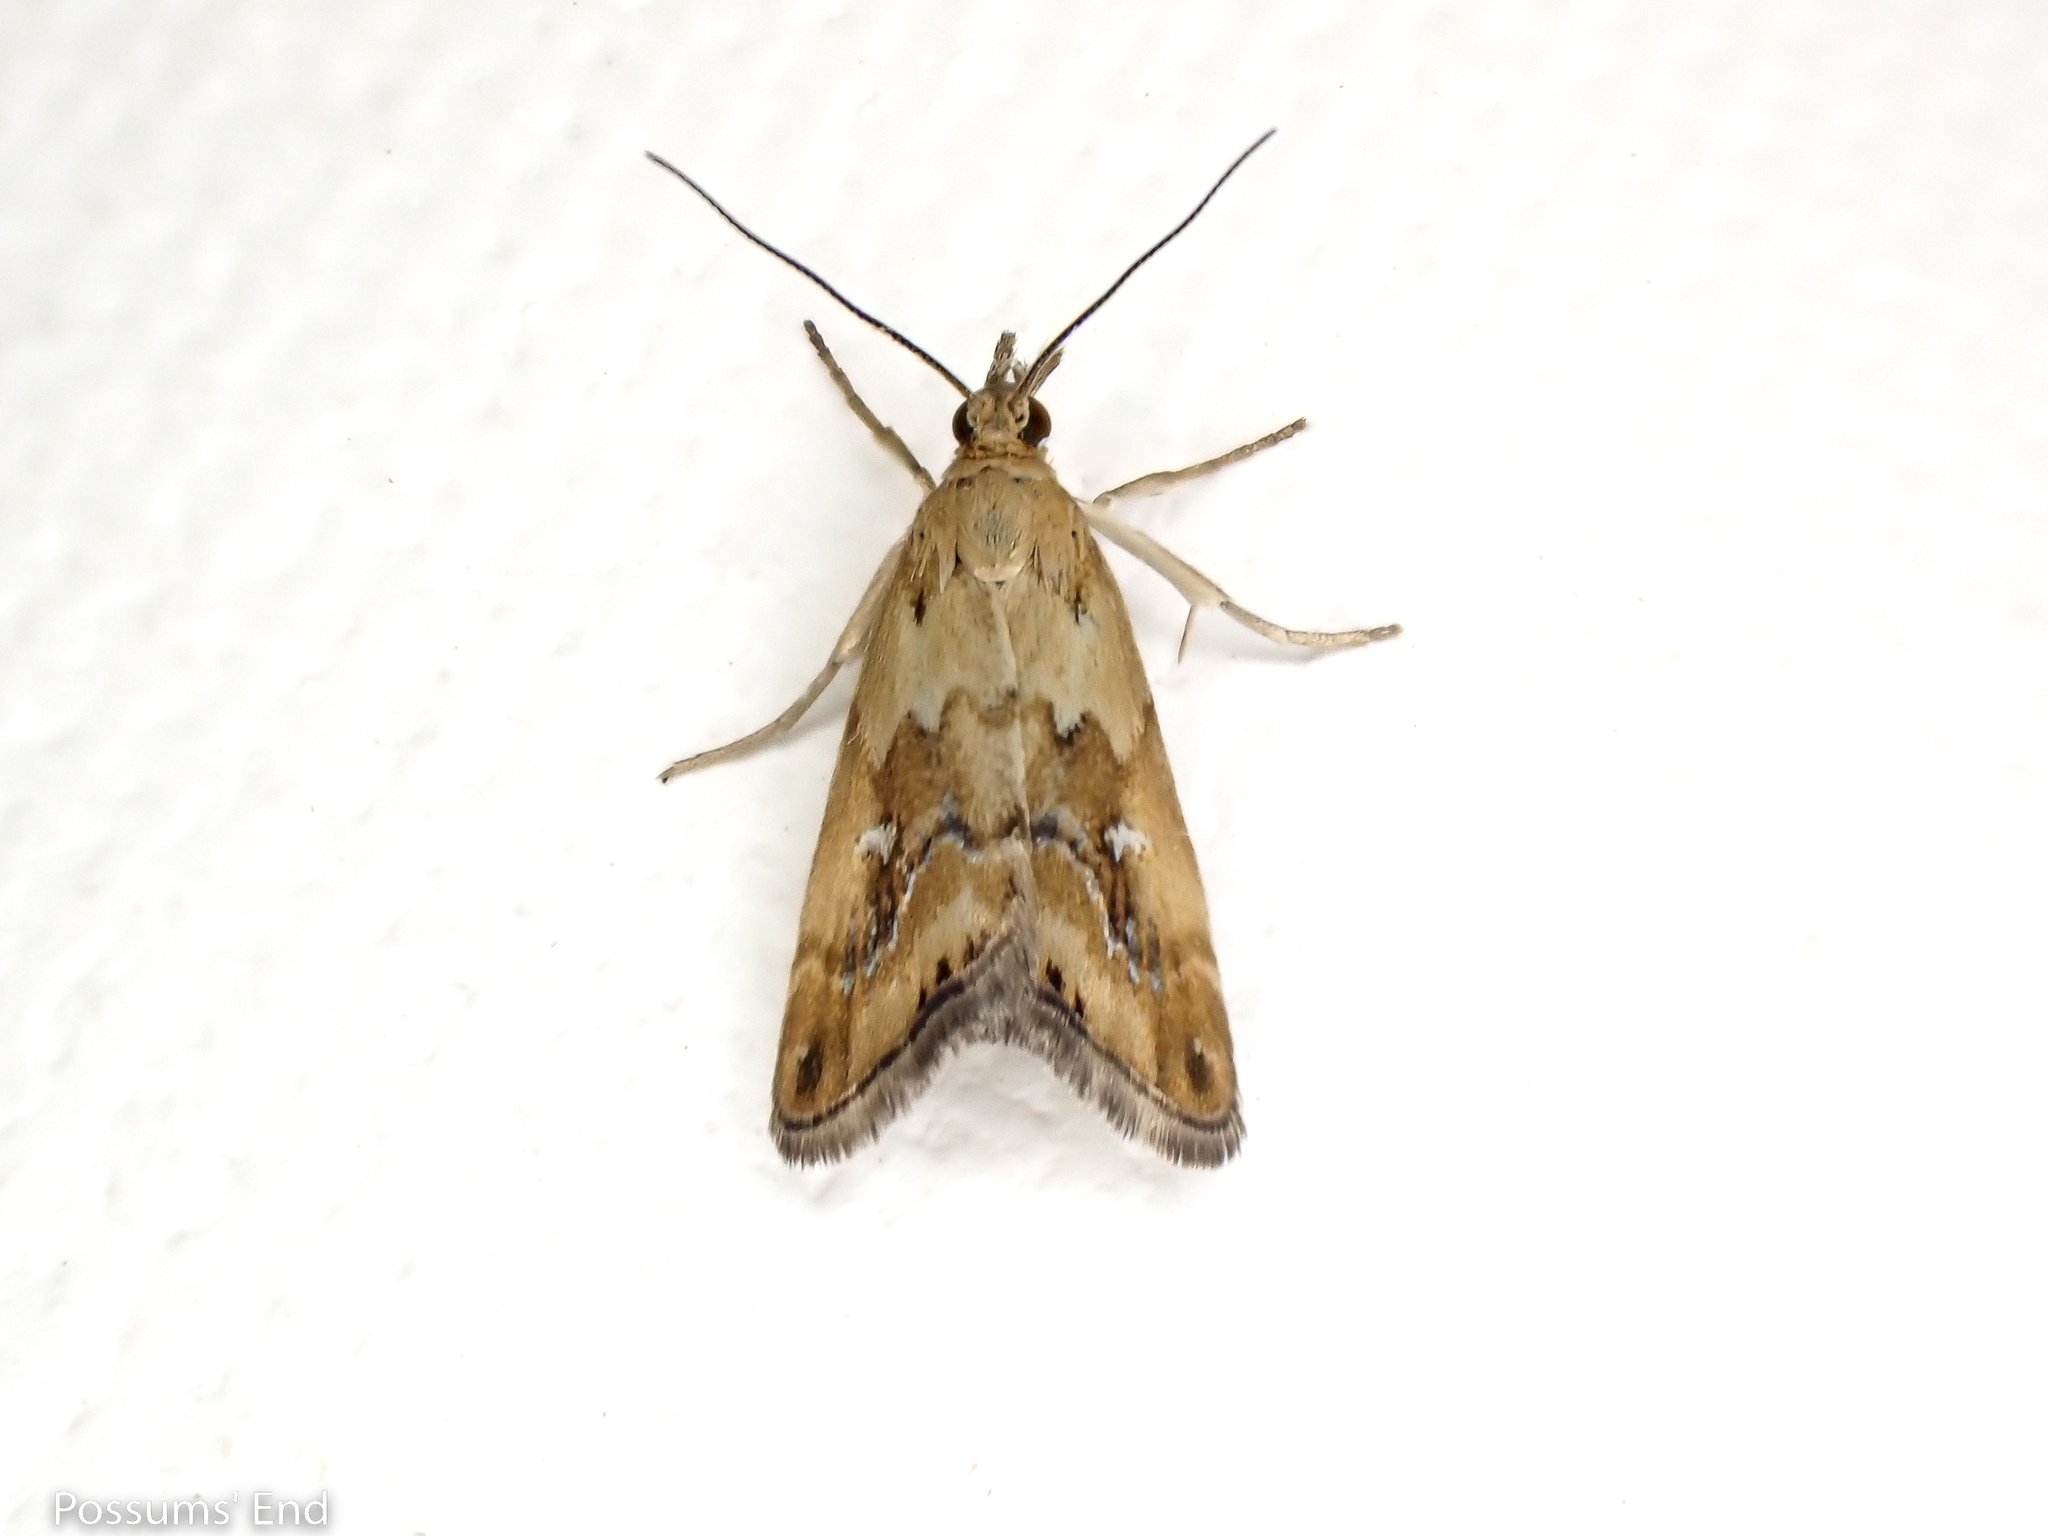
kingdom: Animalia
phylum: Arthropoda
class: Insecta
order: Lepidoptera
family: Crambidae
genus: Glaucocharis
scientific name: Glaucocharis helioctypa
